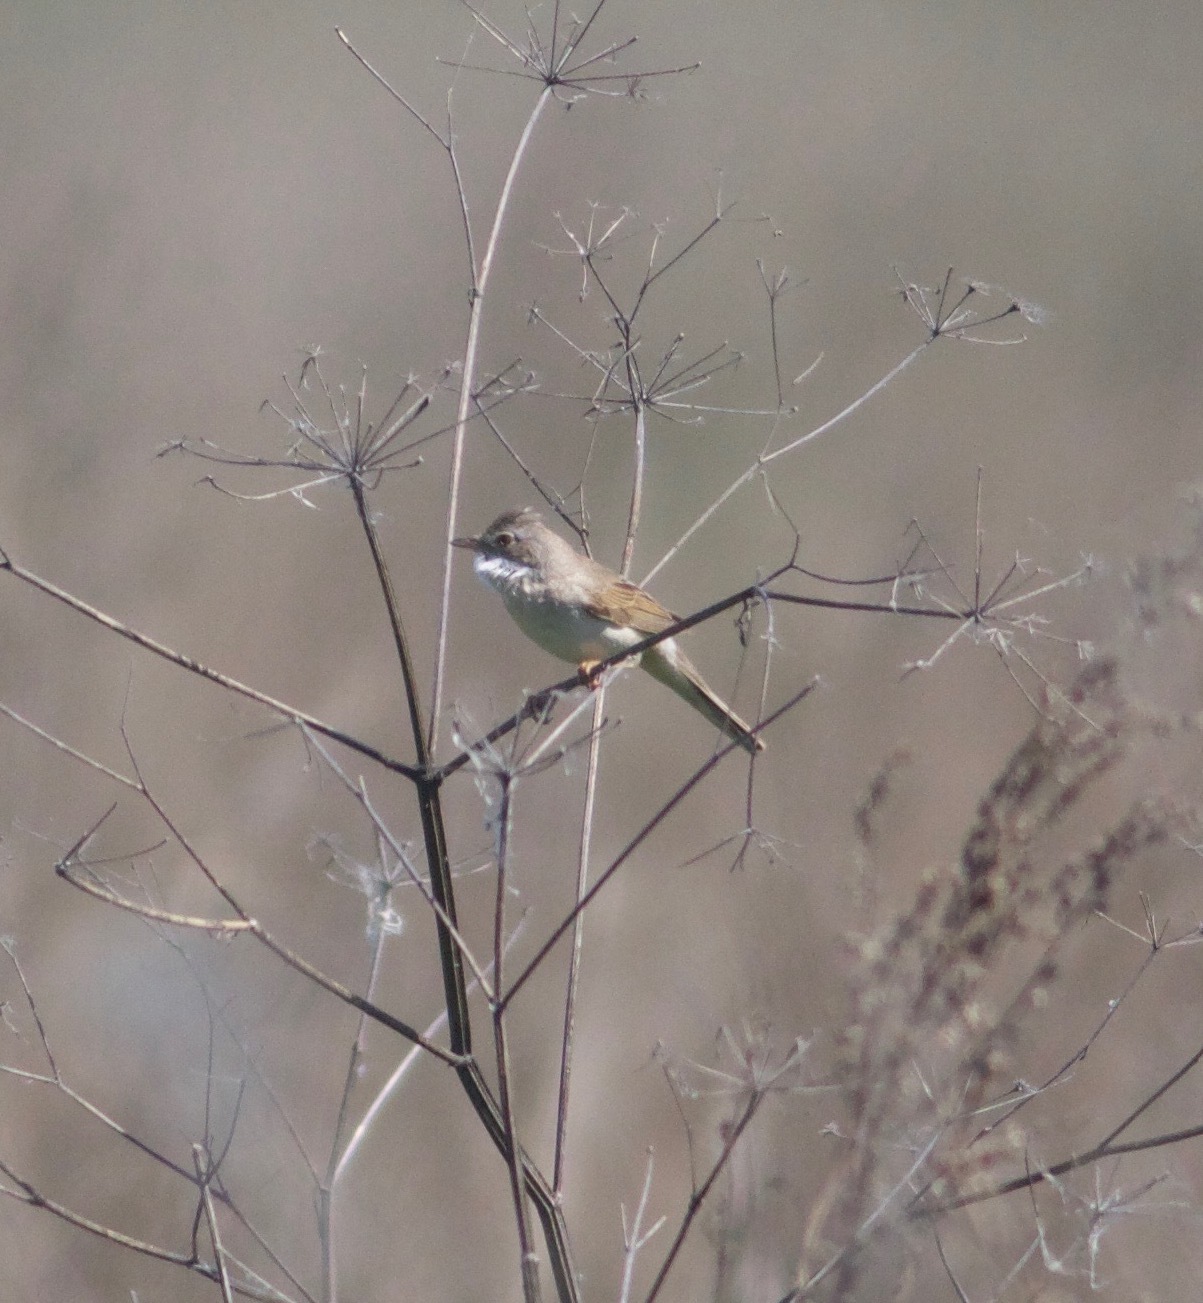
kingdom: Animalia
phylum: Chordata
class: Aves
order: Passeriformes
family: Sylviidae
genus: Sylvia
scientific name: Sylvia communis
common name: Common whitethroat
